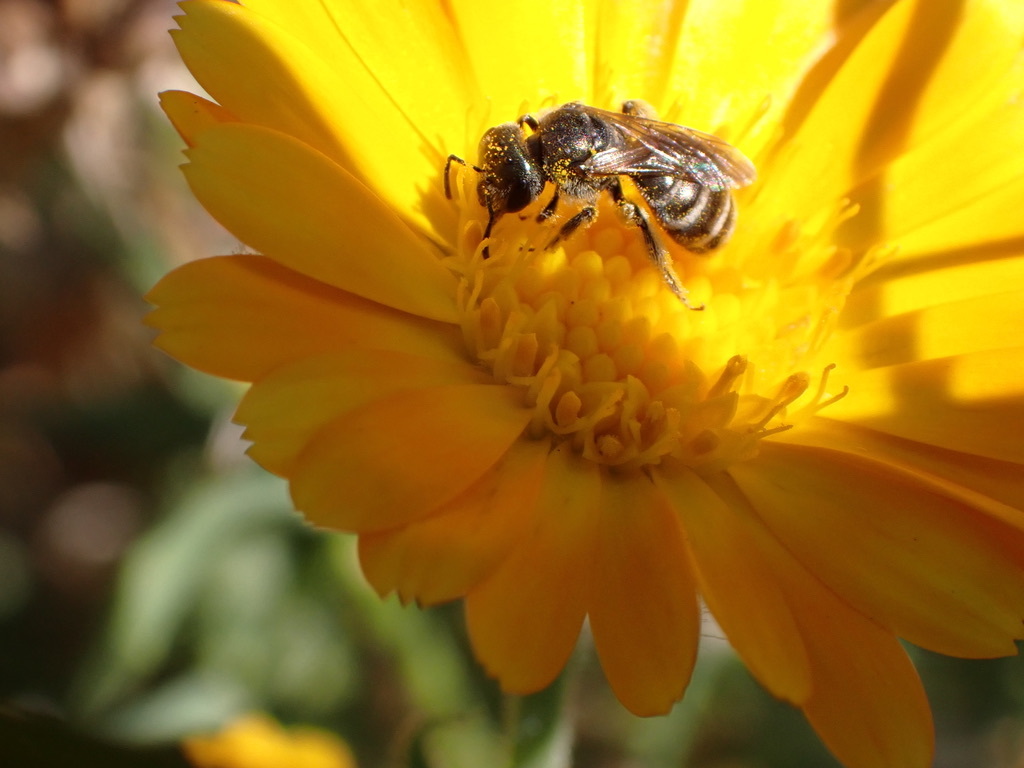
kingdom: Animalia
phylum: Arthropoda
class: Insecta
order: Hymenoptera
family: Halictidae
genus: Halictus
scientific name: Halictus tripartitus
